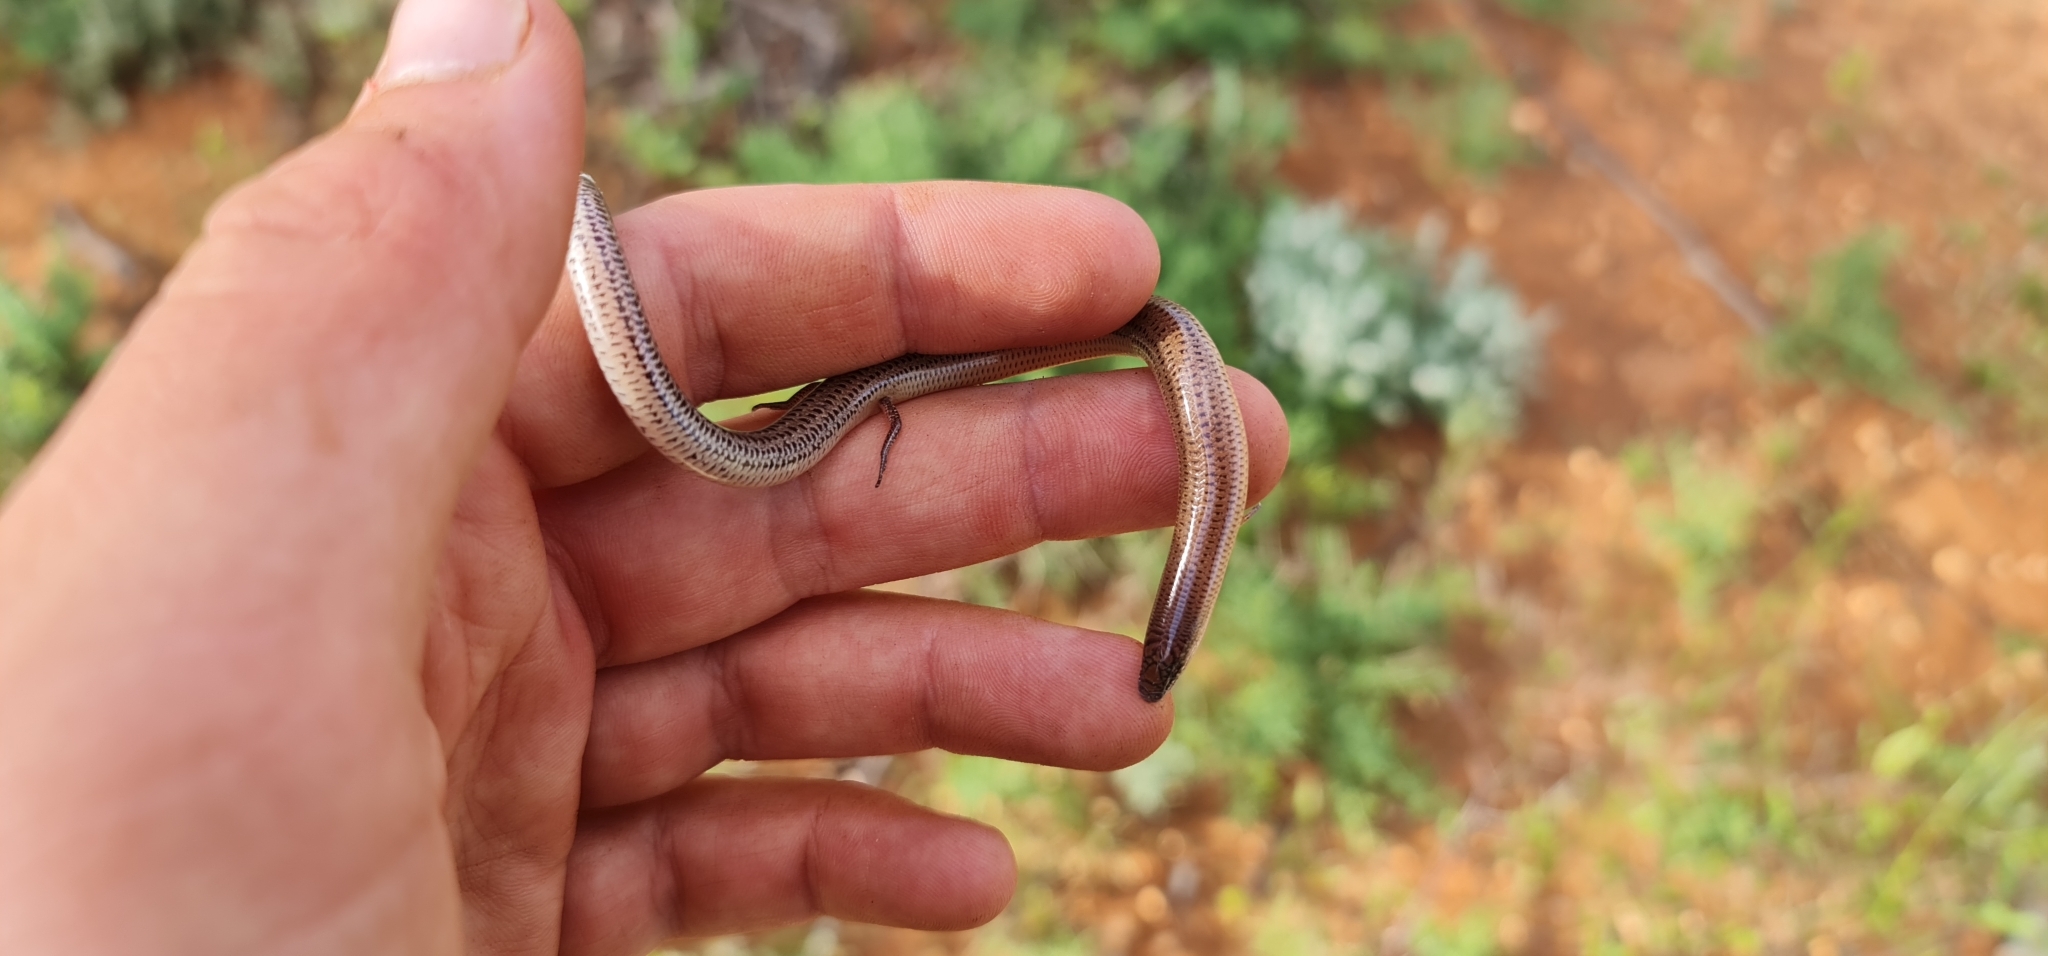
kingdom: Animalia
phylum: Chordata
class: Squamata
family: Scincidae
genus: Lerista
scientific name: Lerista punctatovittata
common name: Eastern robust slider
